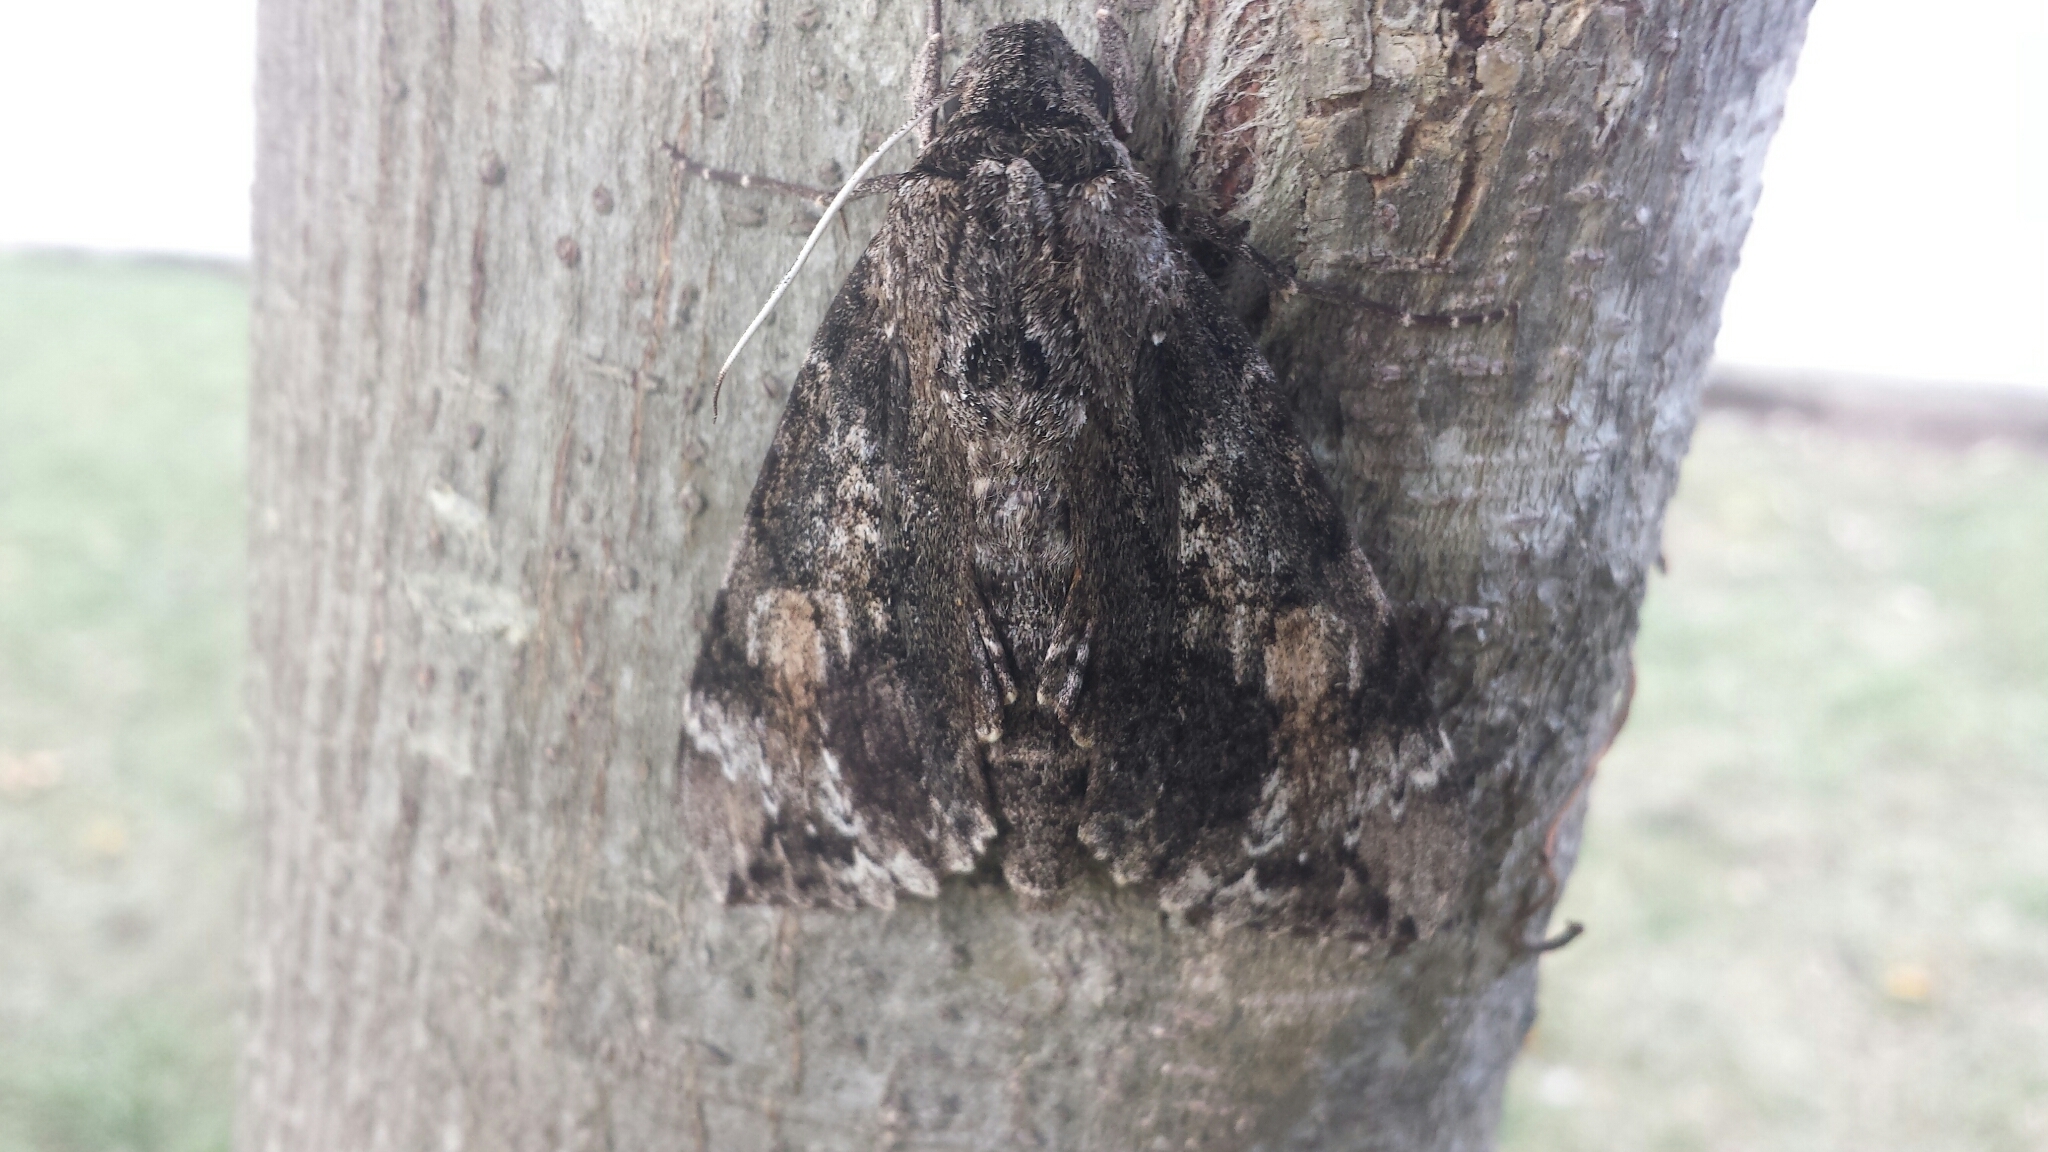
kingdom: Animalia
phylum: Arthropoda
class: Insecta
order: Lepidoptera
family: Sphingidae
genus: Isognathus
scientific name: Isognathus occidentalis
